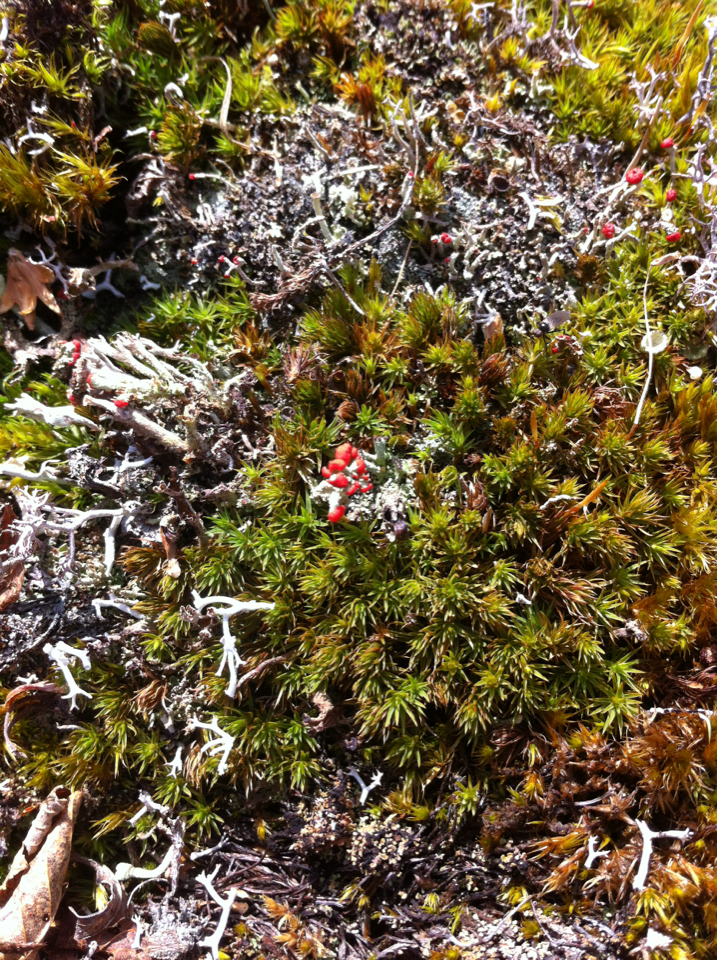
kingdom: Fungi
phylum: Ascomycota
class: Lecanoromycetes
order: Lecanorales
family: Cladoniaceae
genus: Cladonia
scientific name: Cladonia cristatella
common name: British soldier lichen
